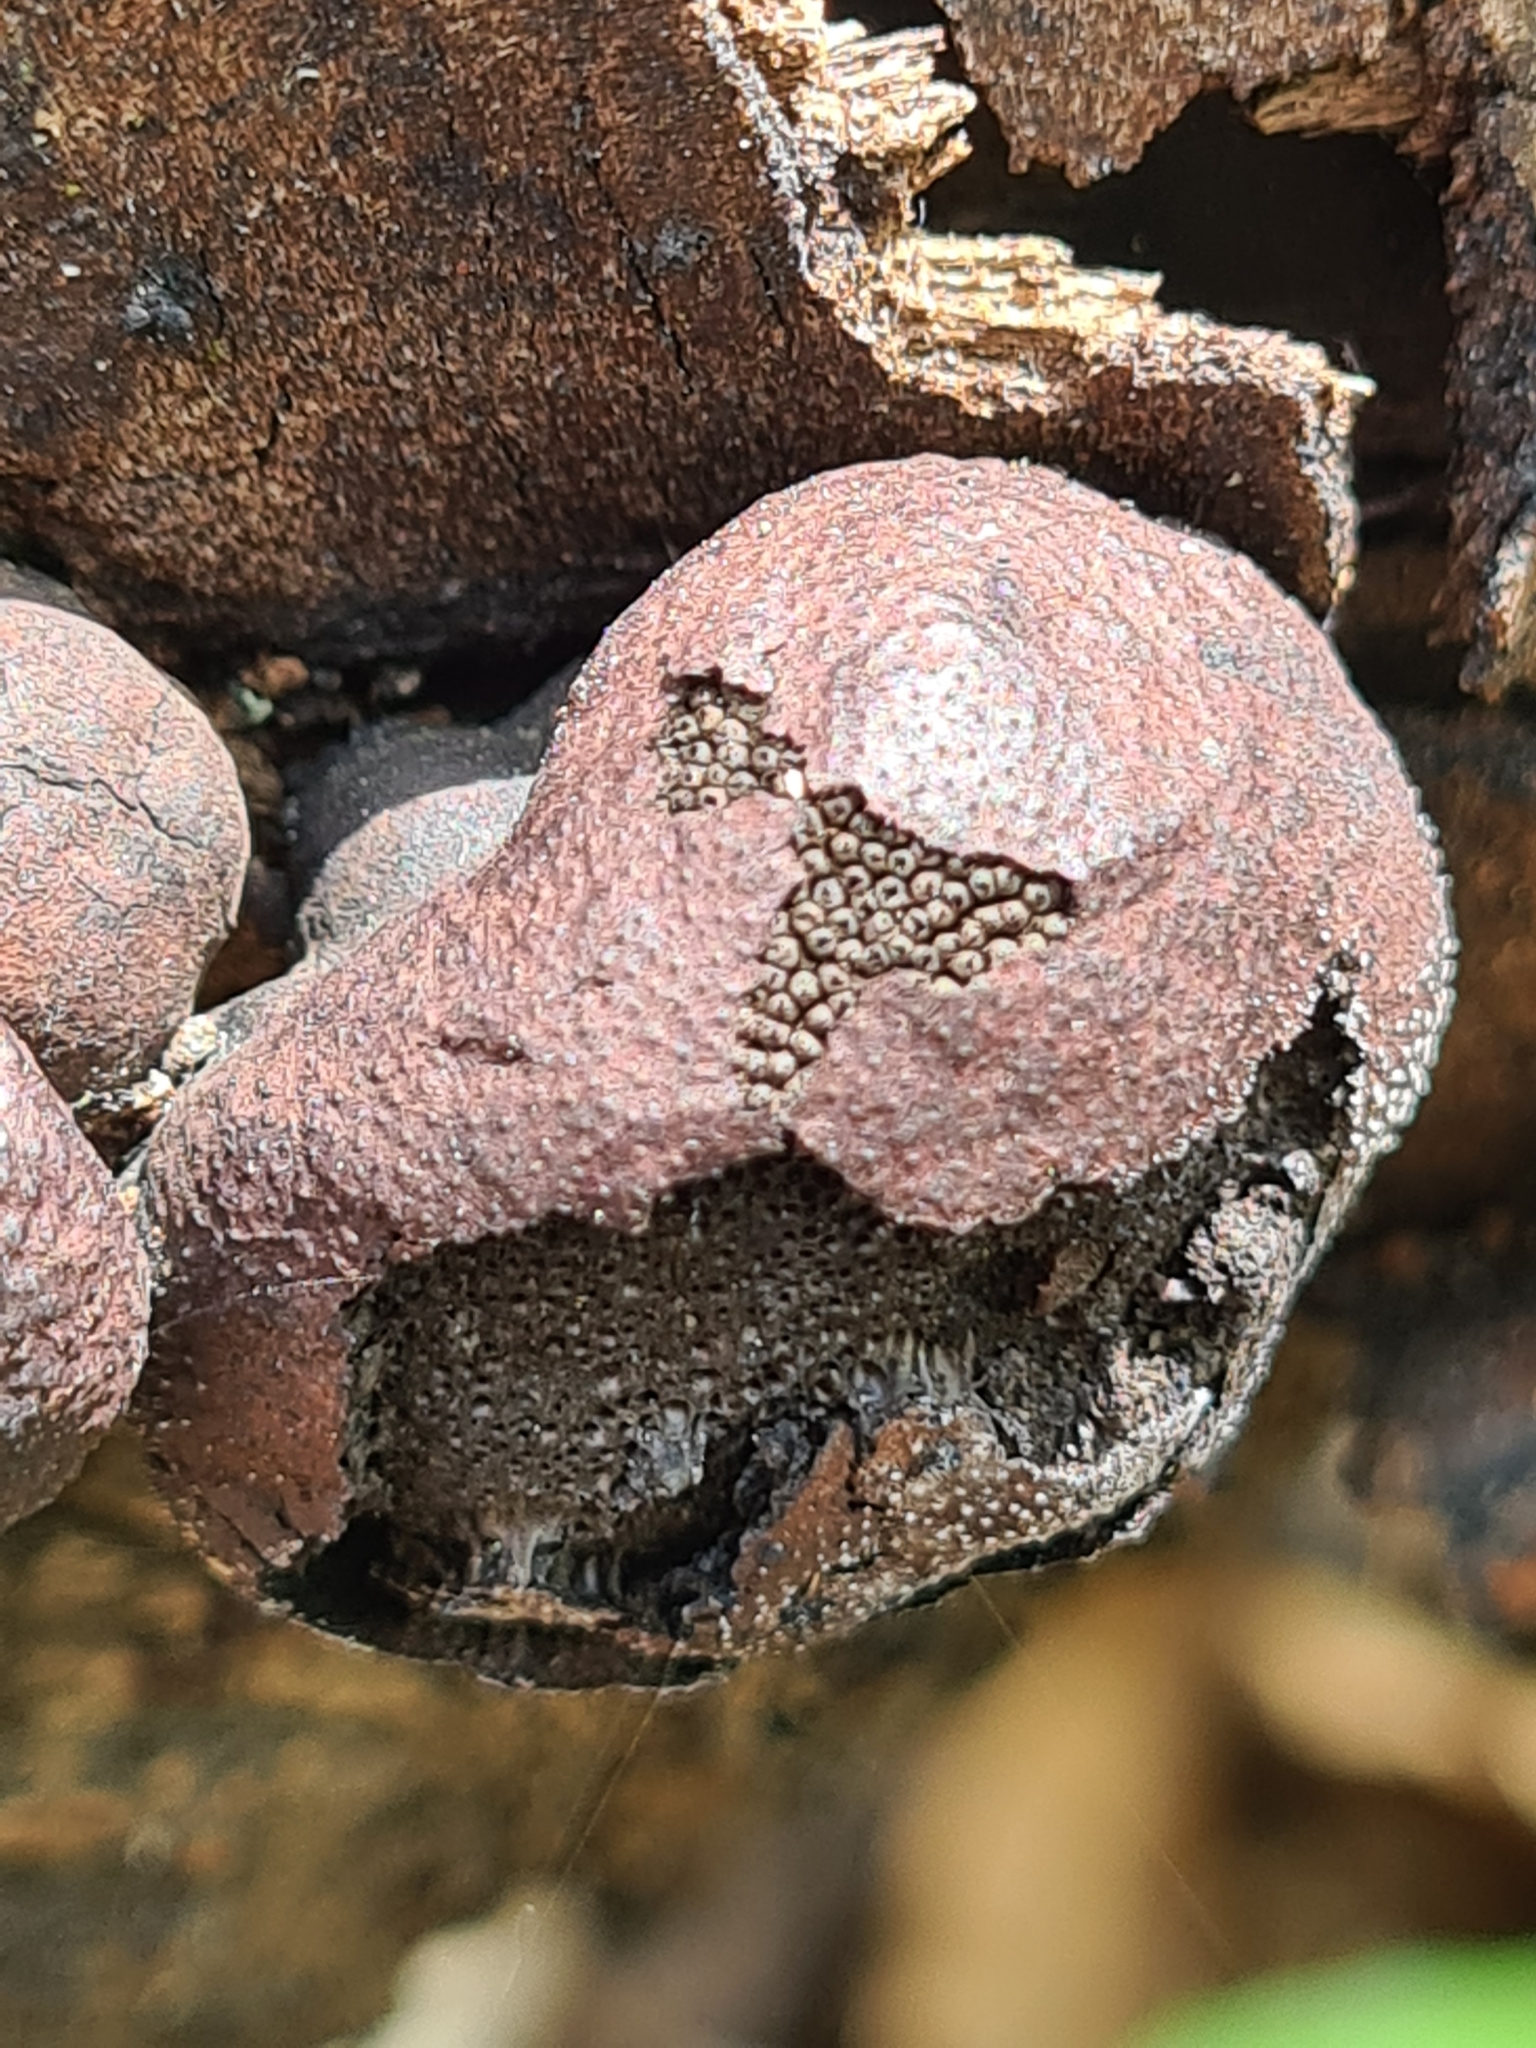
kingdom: Fungi
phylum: Ascomycota
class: Sordariomycetes
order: Xylariales
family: Hypoxylaceae
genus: Hypoxylon
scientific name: Hypoxylon fragiforme
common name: Beech woodwart
